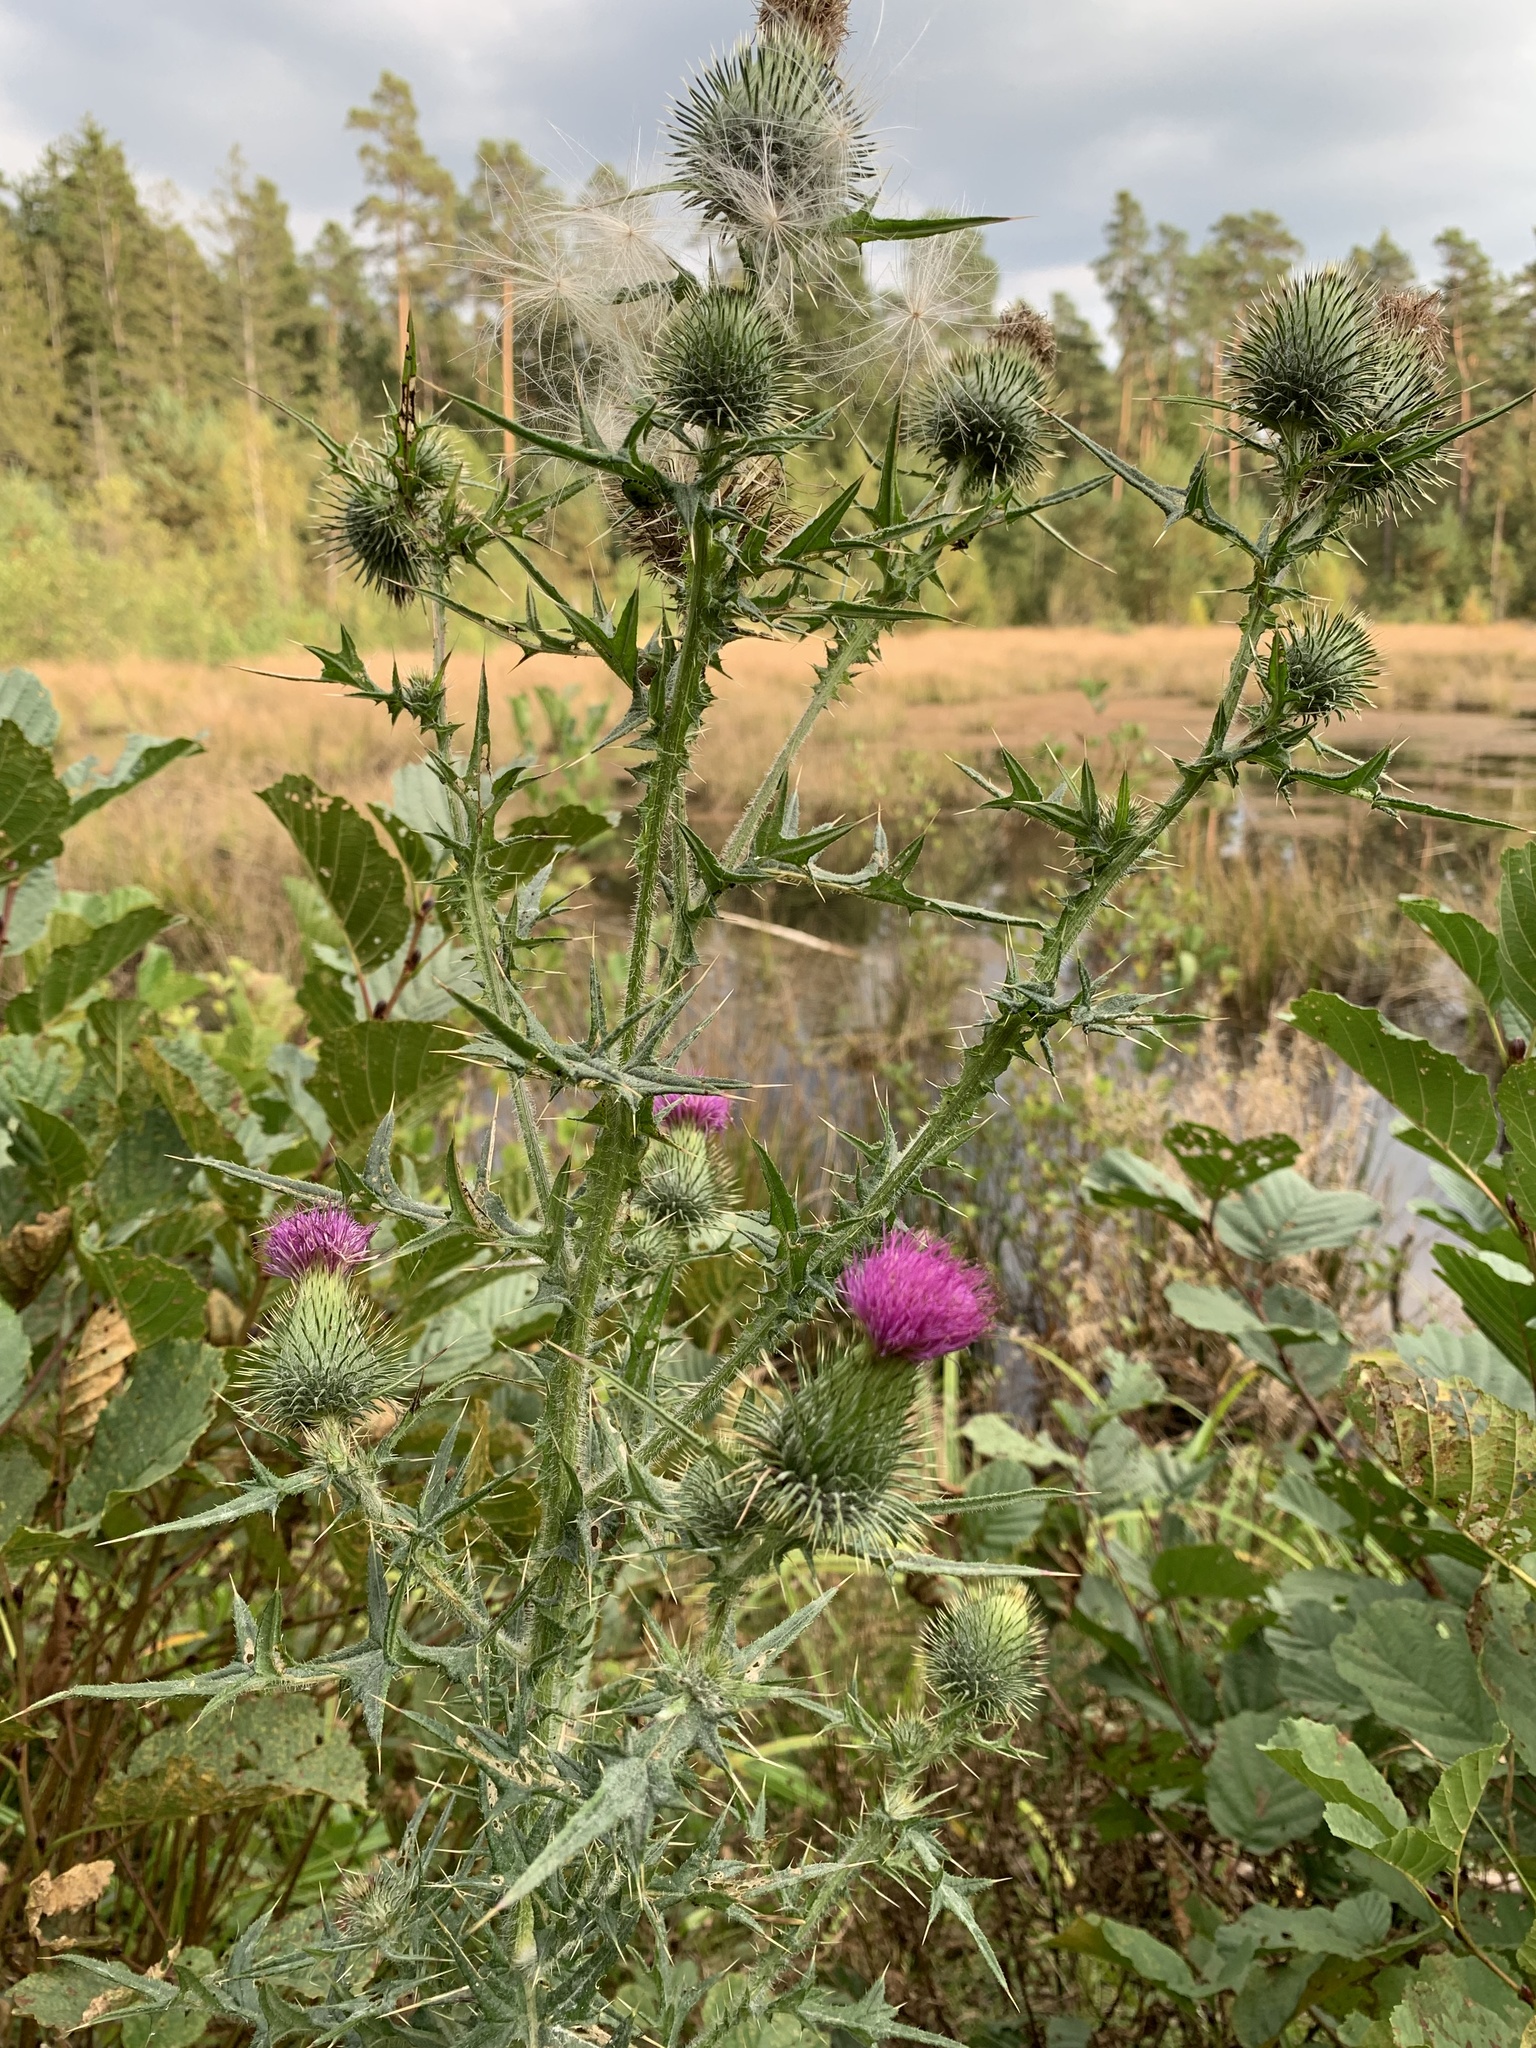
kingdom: Plantae
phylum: Tracheophyta
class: Magnoliopsida
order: Asterales
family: Asteraceae
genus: Cirsium
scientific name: Cirsium vulgare
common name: Bull thistle
